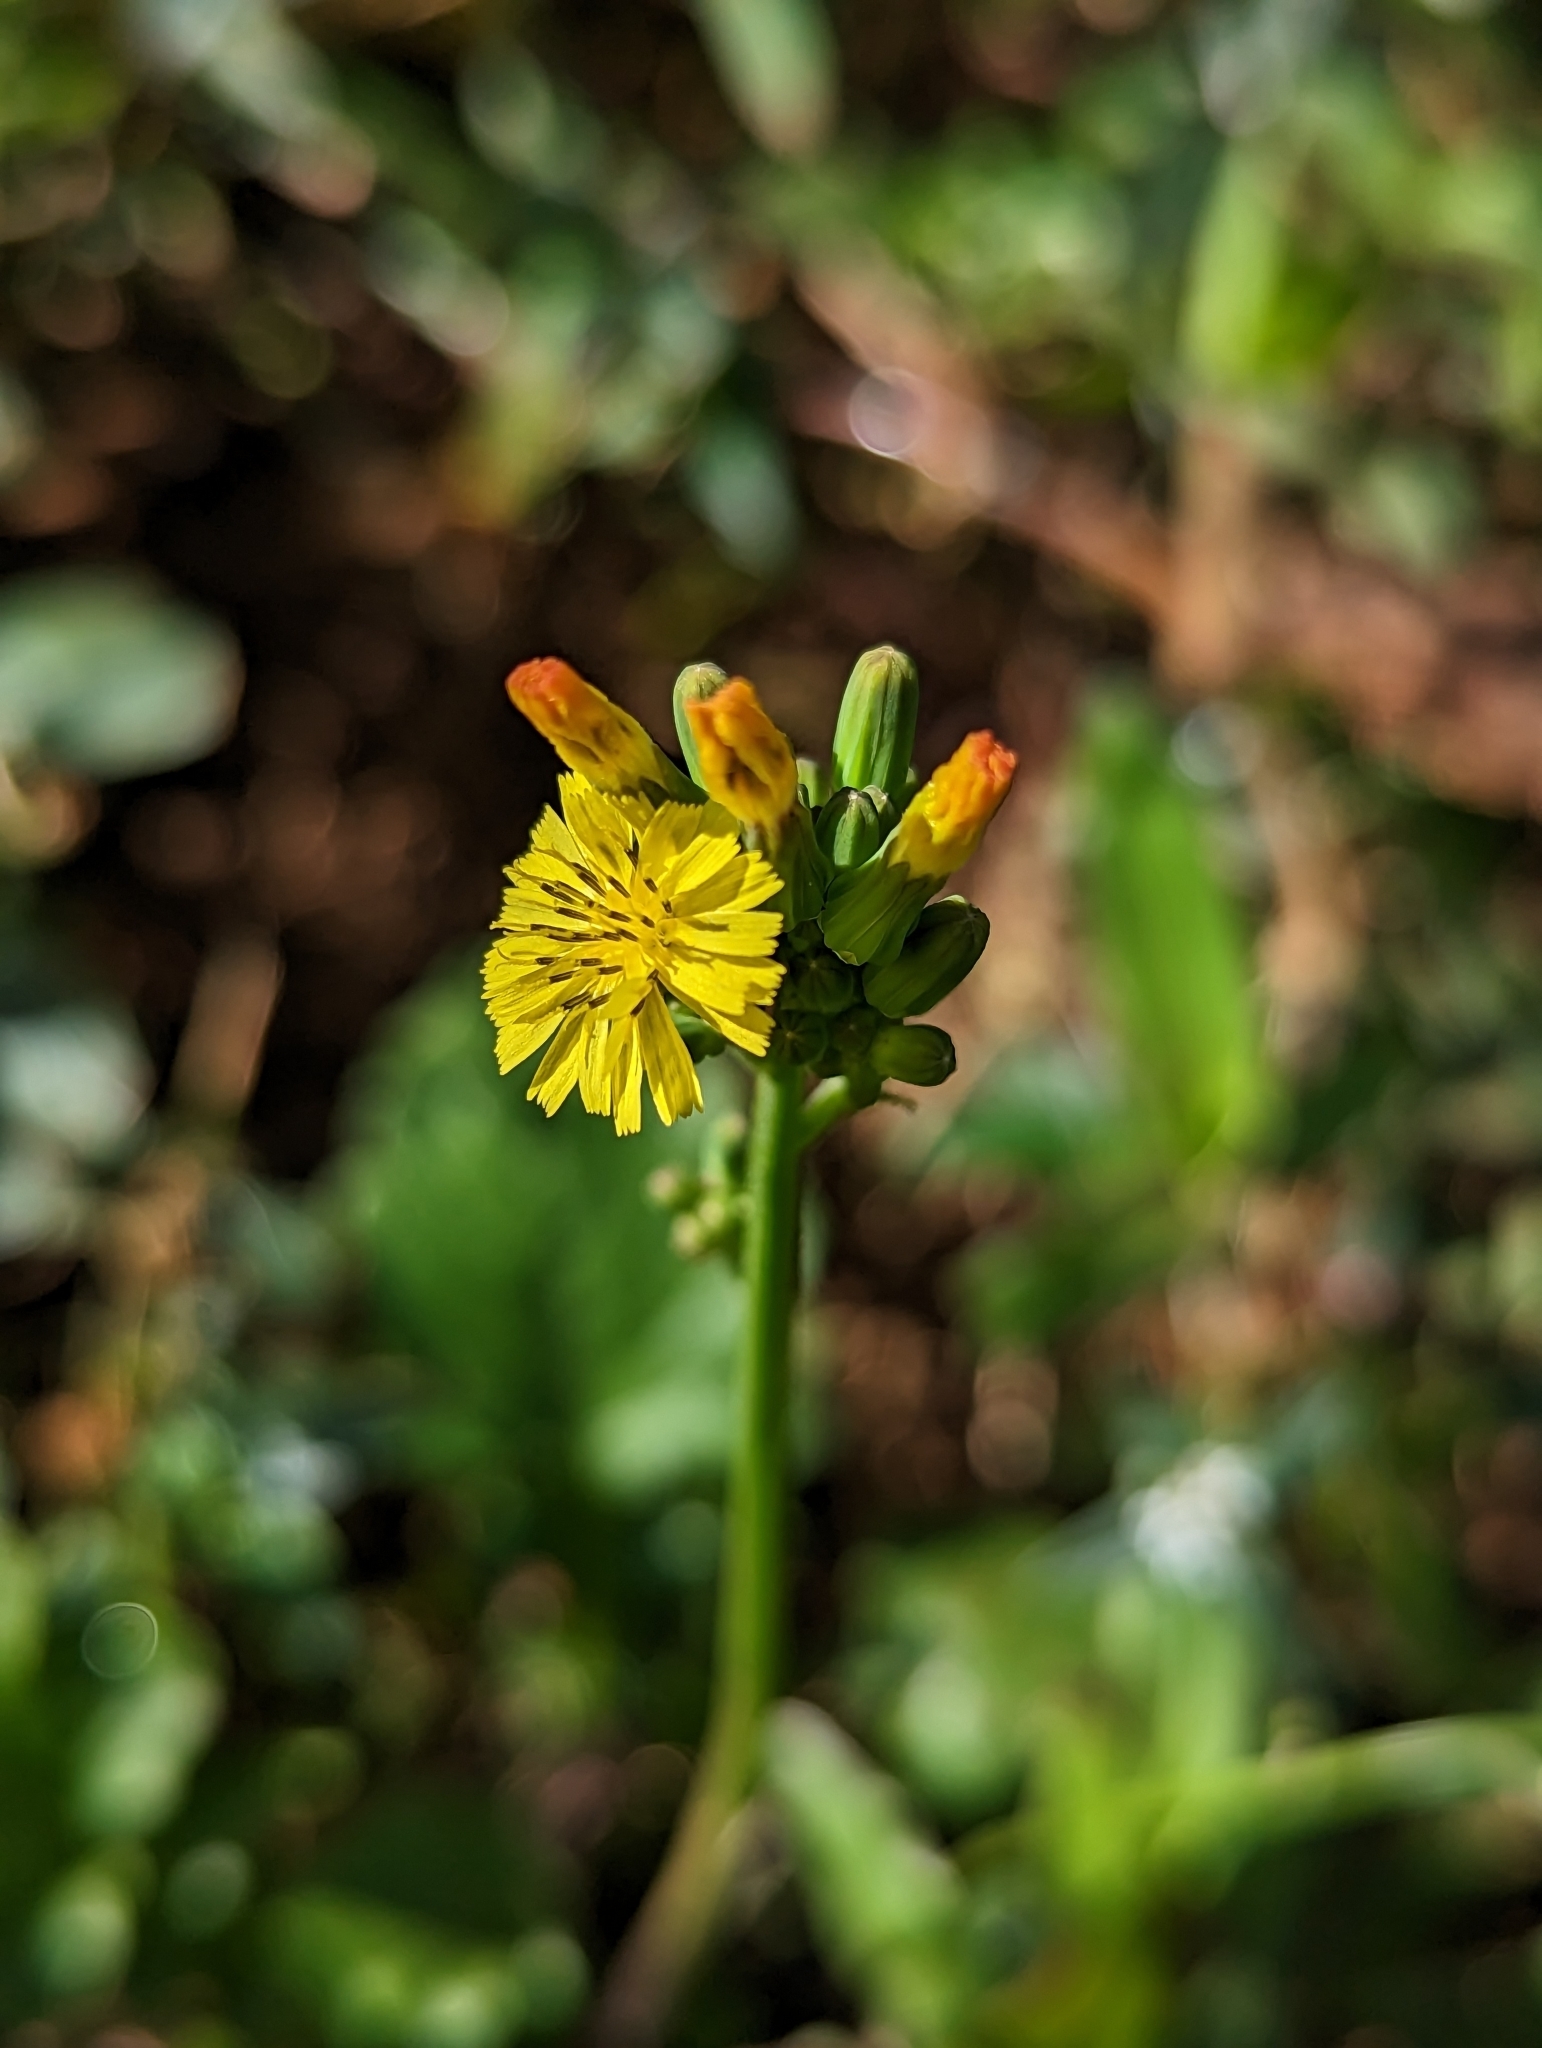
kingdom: Plantae
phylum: Tracheophyta
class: Magnoliopsida
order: Asterales
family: Asteraceae
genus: Youngia
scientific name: Youngia japonica
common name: Oriental false hawksbeard
